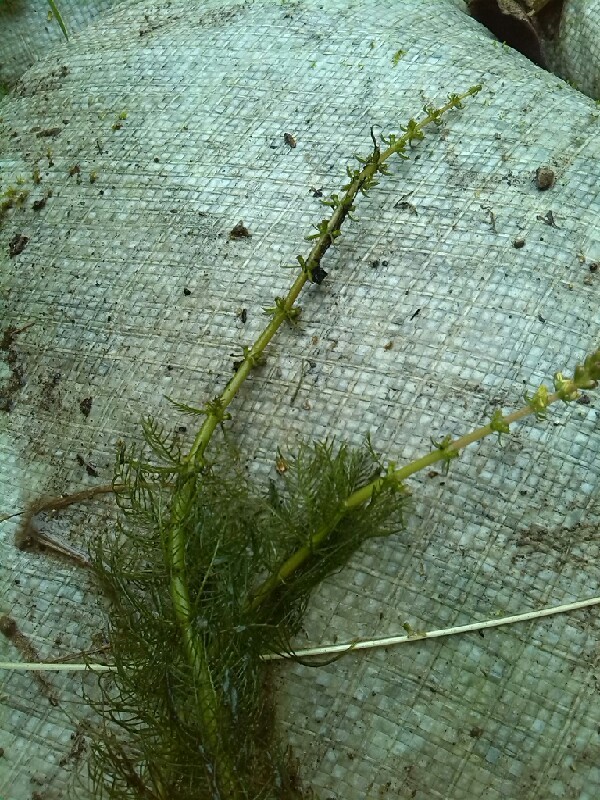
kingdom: Plantae
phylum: Tracheophyta
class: Magnoliopsida
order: Saxifragales
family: Haloragaceae
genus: Myriophyllum
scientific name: Myriophyllum verticillatum
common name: Whorled water-milfoil
